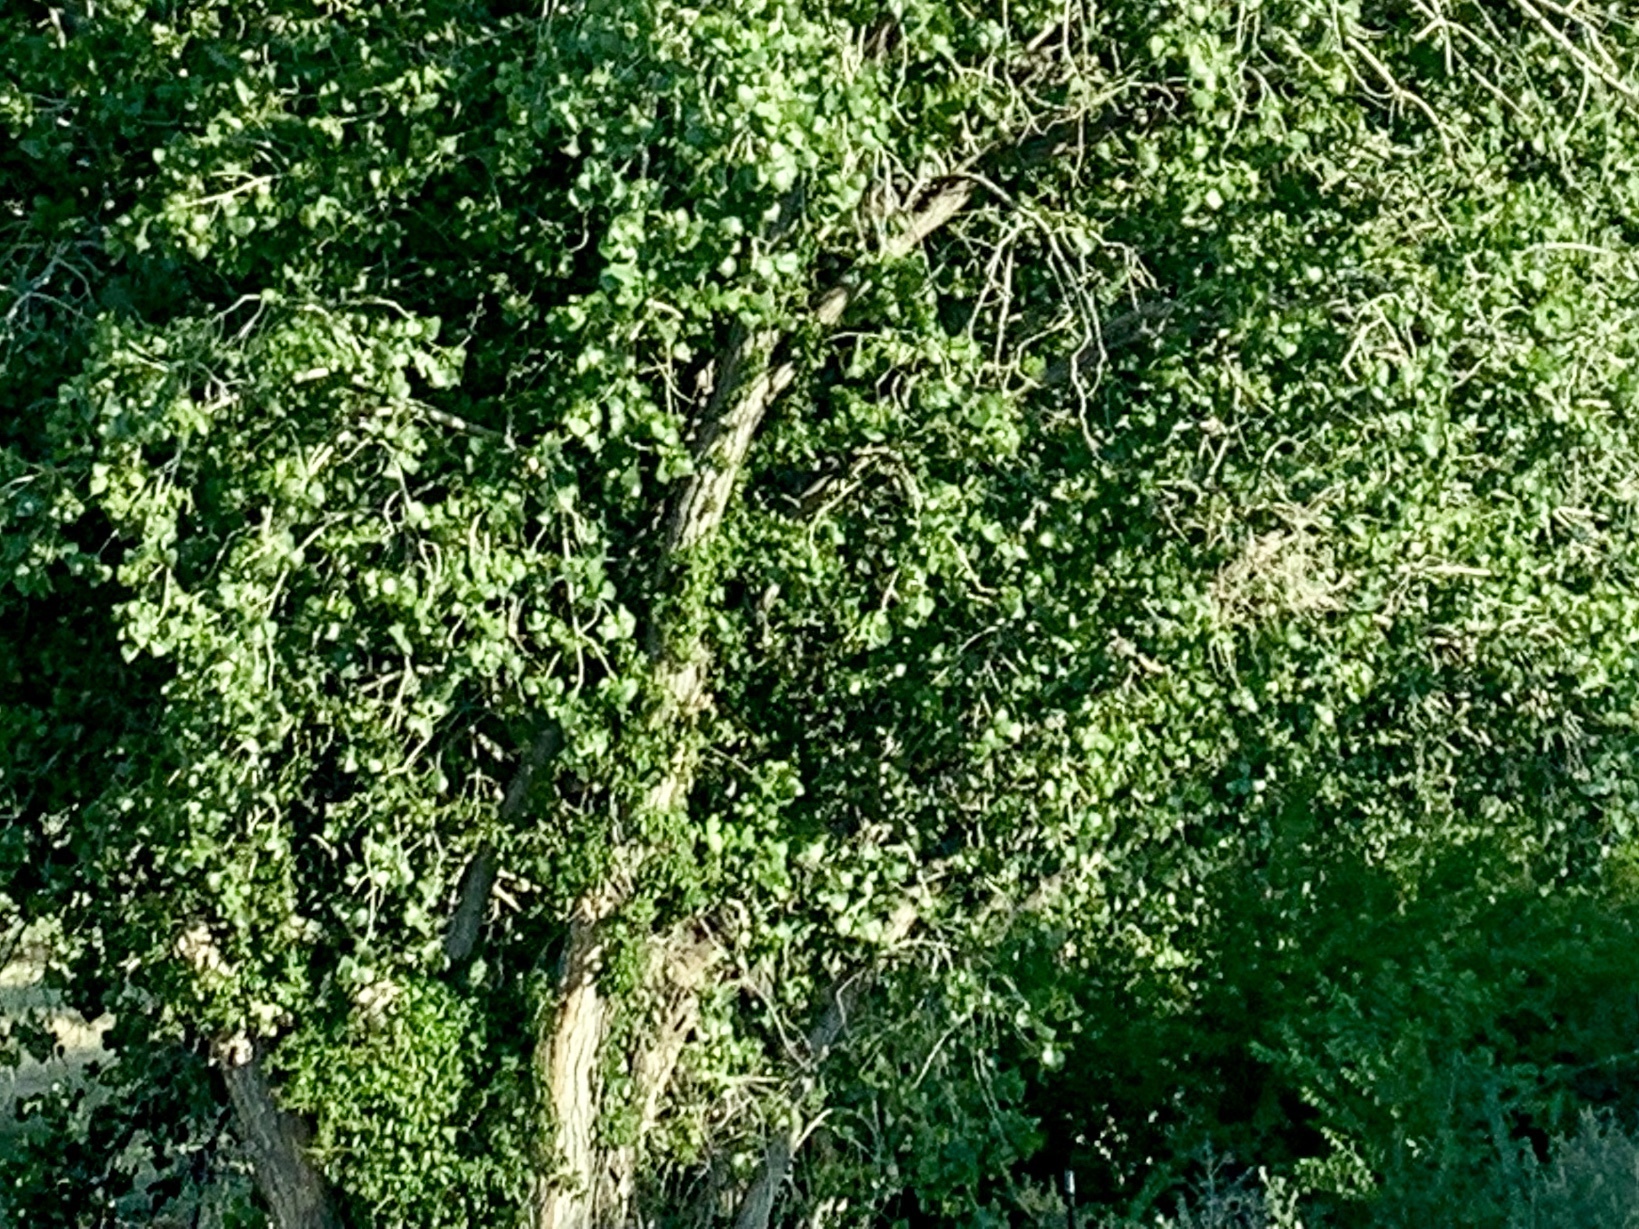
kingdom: Plantae
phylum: Tracheophyta
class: Magnoliopsida
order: Malpighiales
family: Salicaceae
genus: Populus
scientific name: Populus fremontii
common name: Fremont's cottonwood
